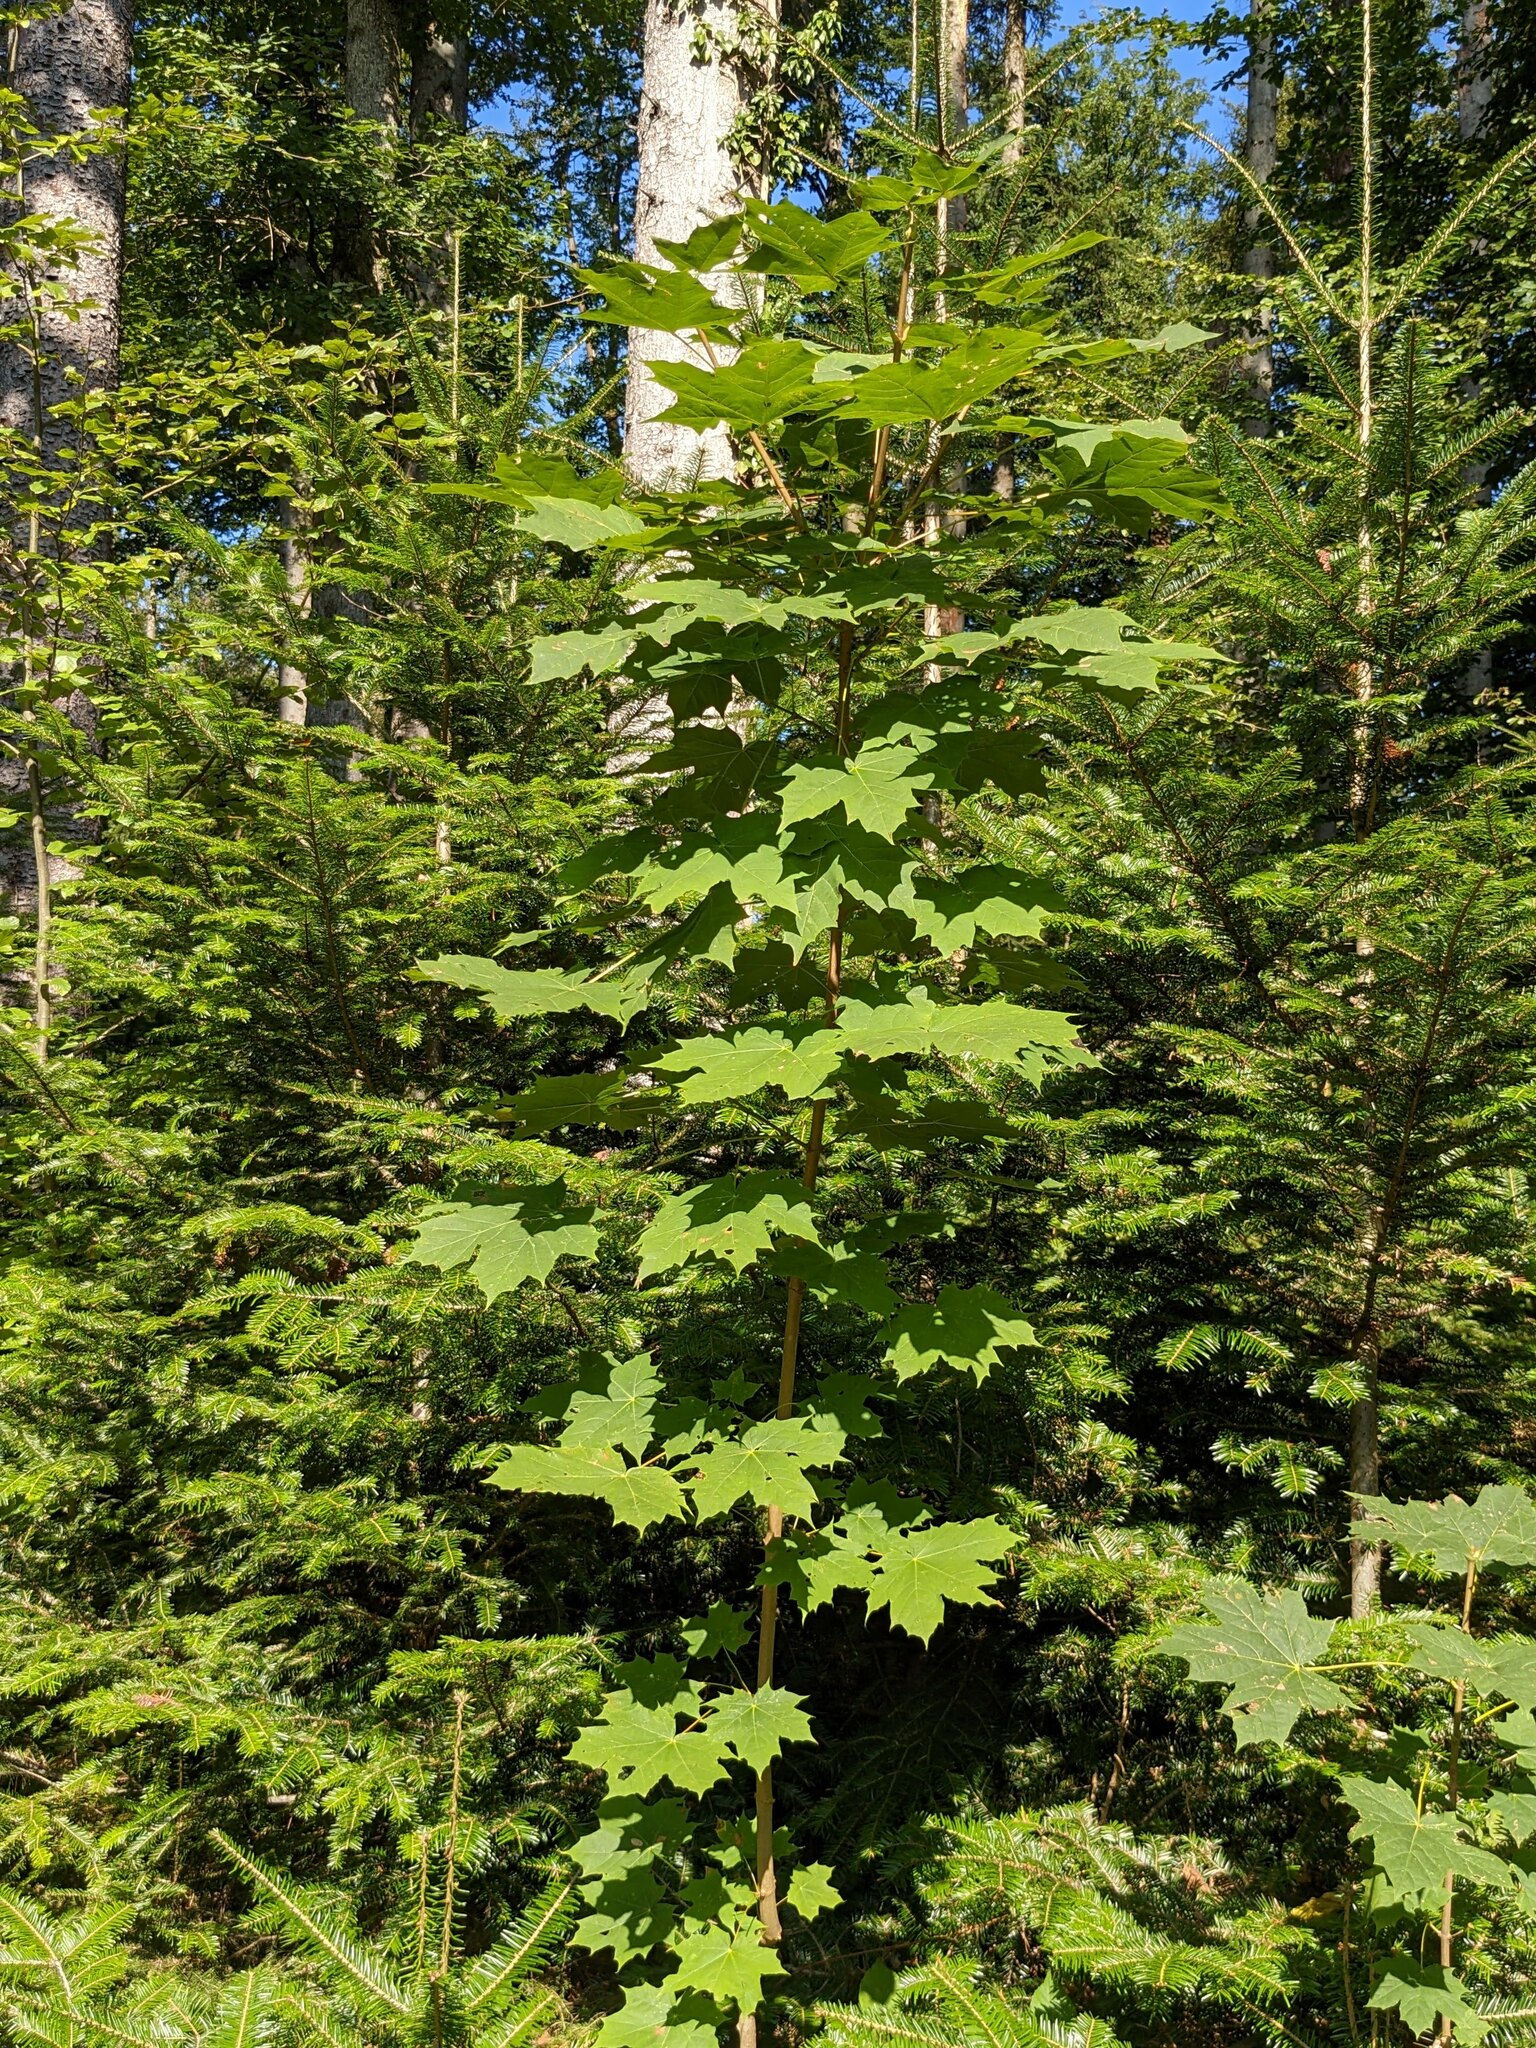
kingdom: Plantae
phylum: Tracheophyta
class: Magnoliopsida
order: Sapindales
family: Sapindaceae
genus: Acer
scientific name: Acer platanoides
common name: Norway maple
